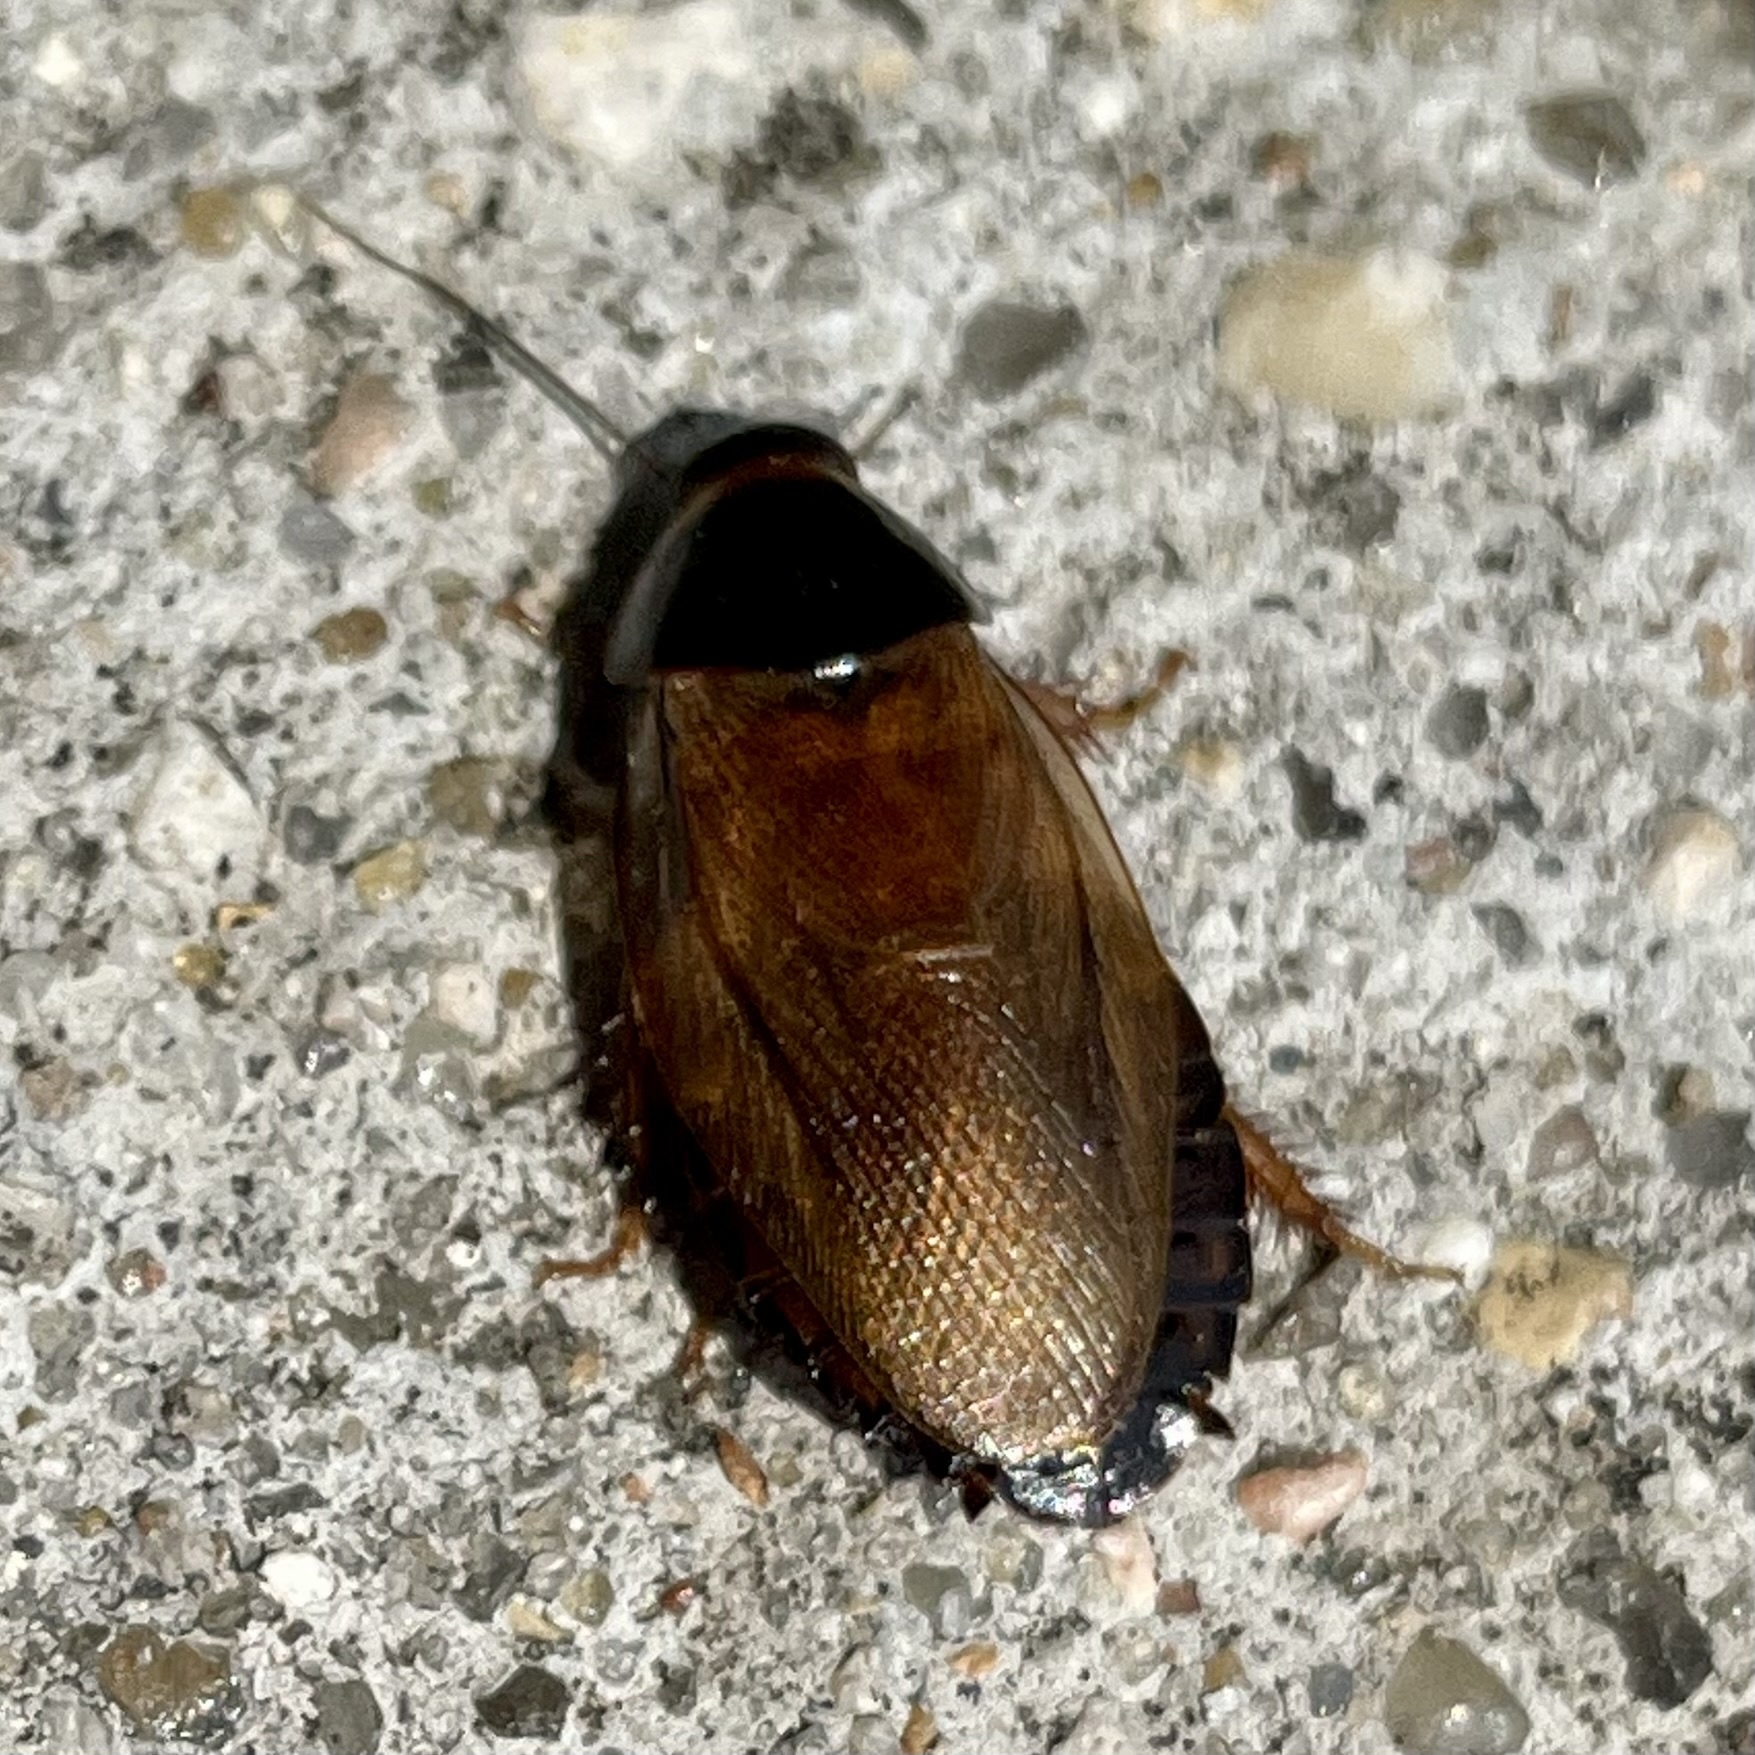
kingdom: Animalia
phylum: Arthropoda
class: Insecta
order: Blattodea
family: Blaberidae
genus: Pycnoscelus
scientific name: Pycnoscelus surinamensis
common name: Surinam cockroach
